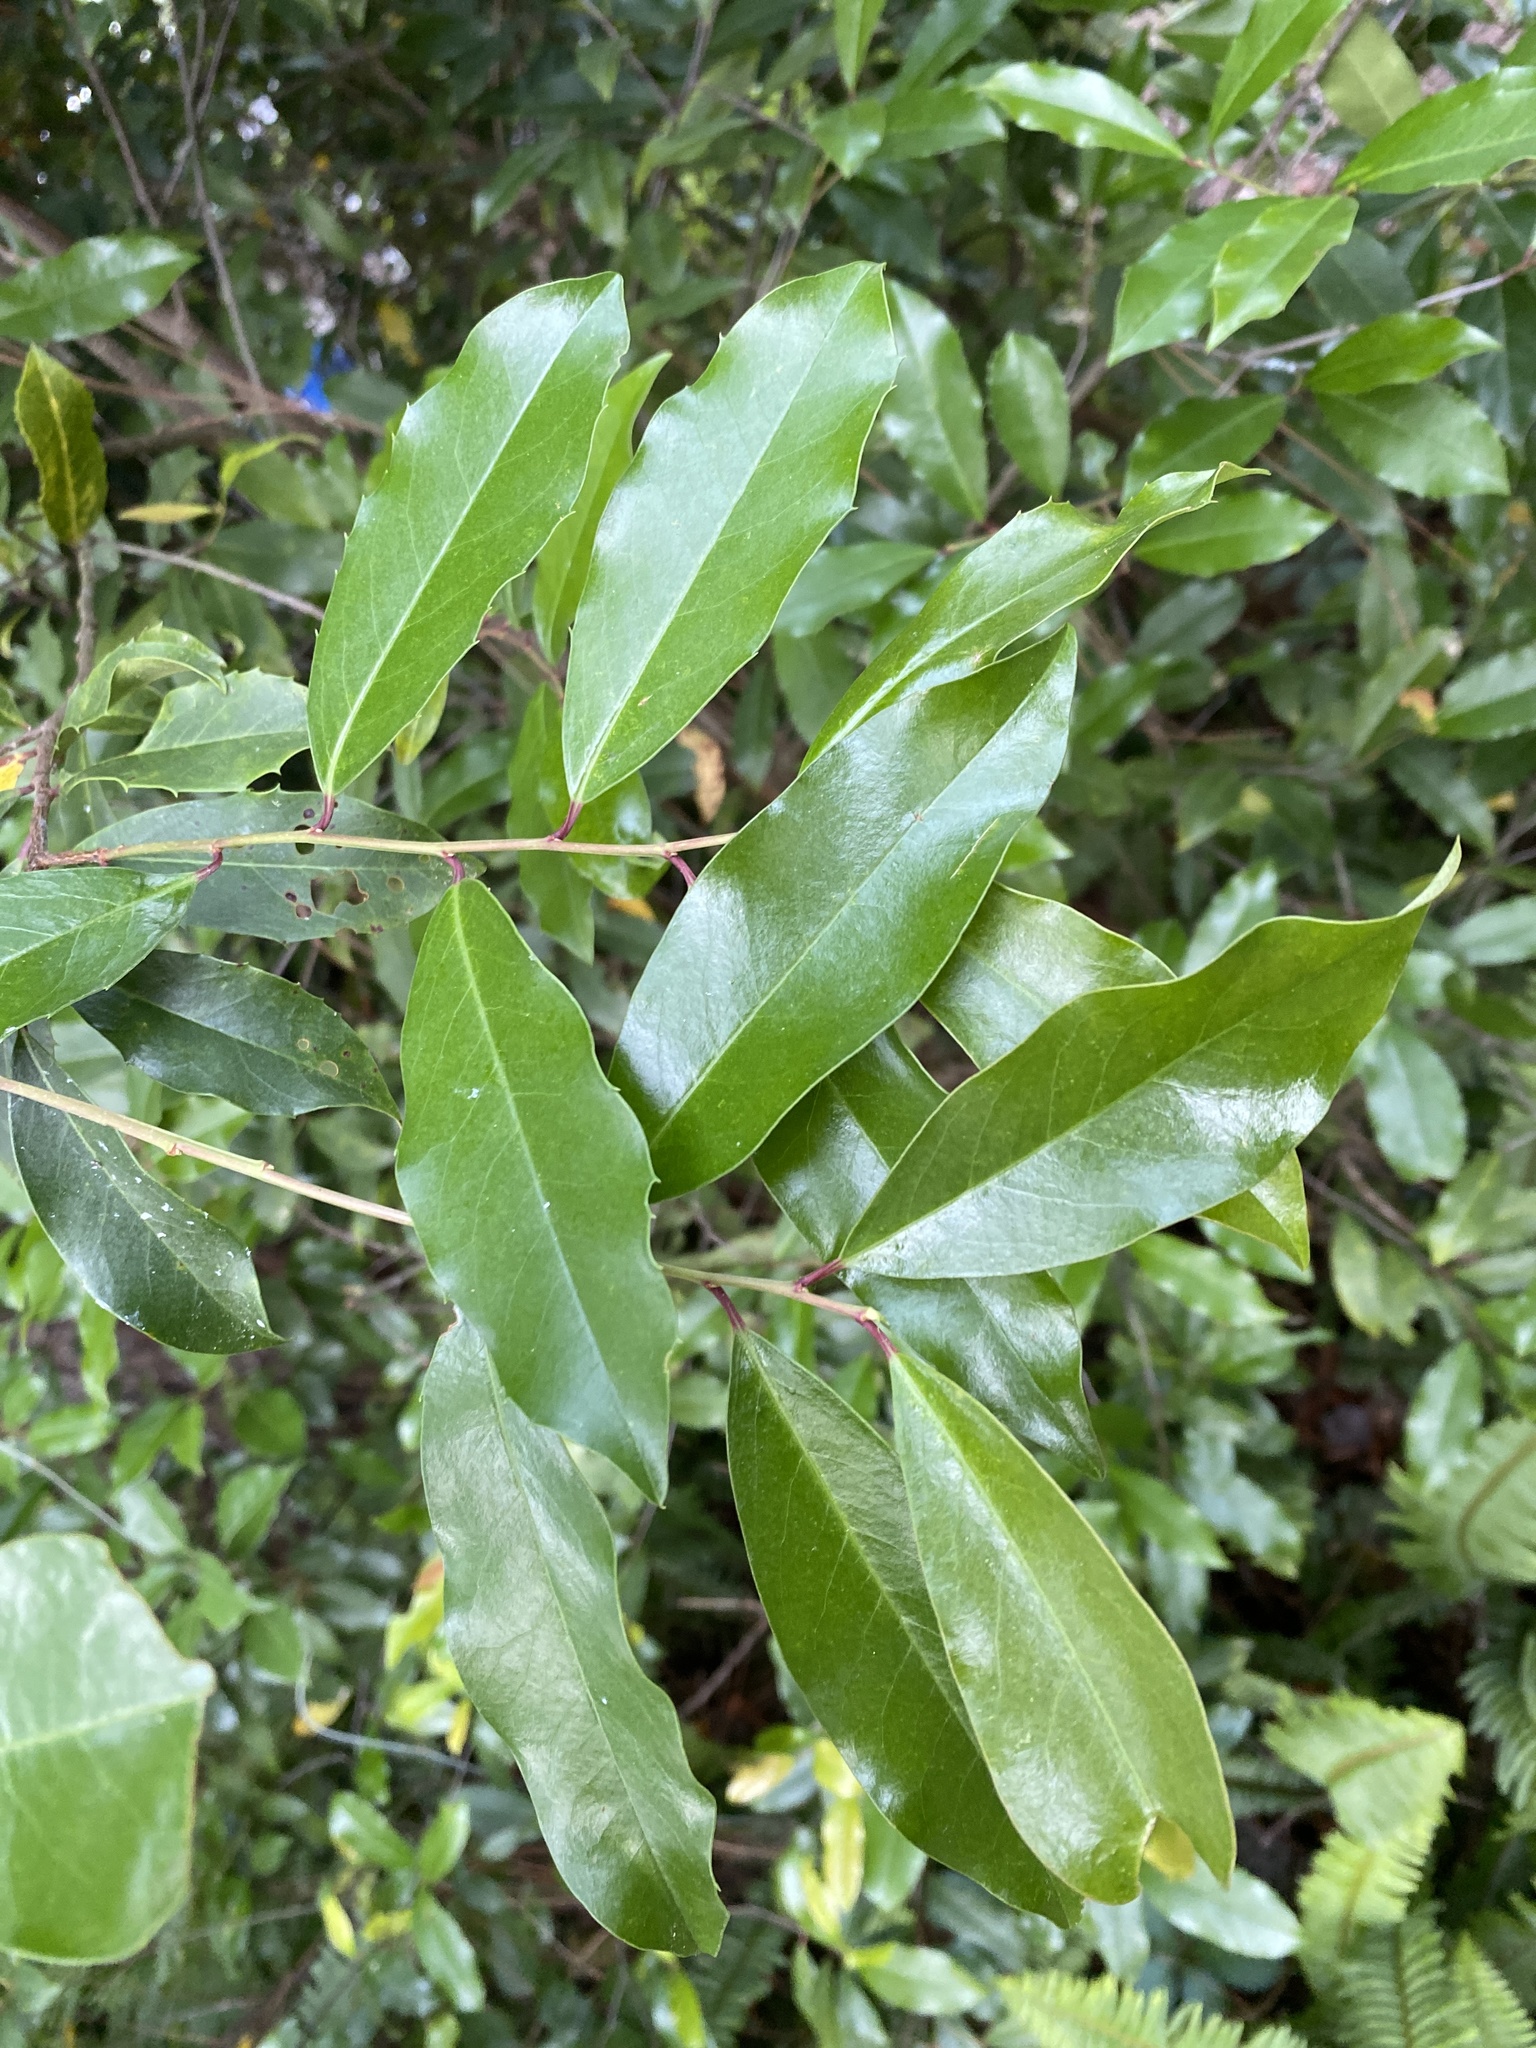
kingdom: Plantae
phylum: Tracheophyta
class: Magnoliopsida
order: Rosales
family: Rosaceae
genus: Prunus
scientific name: Prunus caroliniana
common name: Carolina laurel cherry
